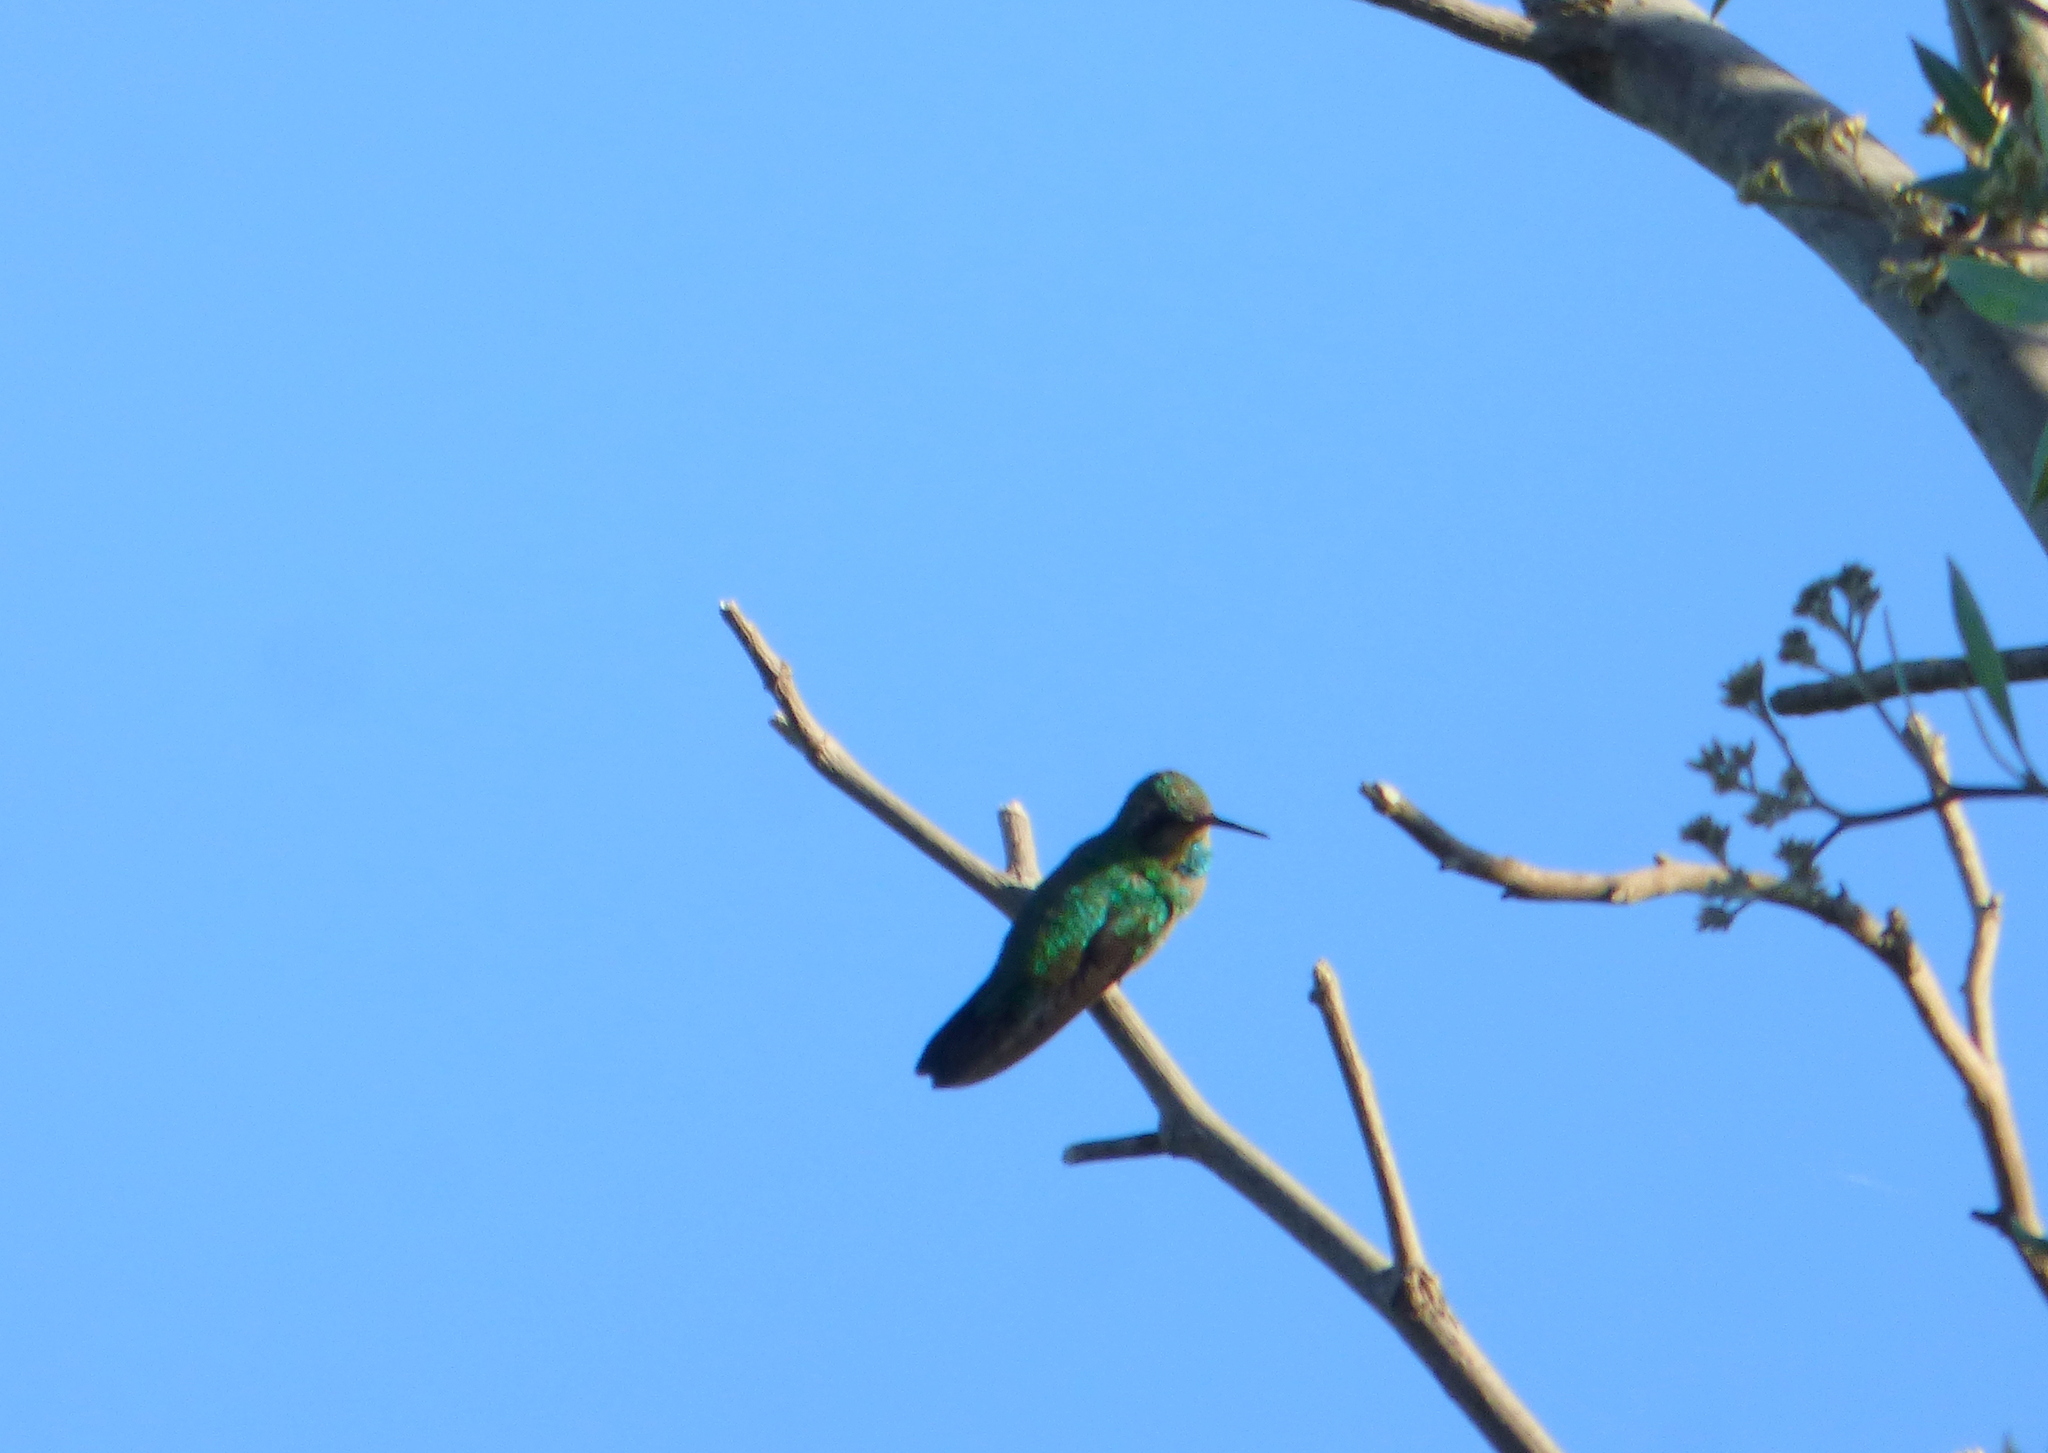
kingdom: Animalia
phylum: Chordata
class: Aves
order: Apodiformes
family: Trochilidae
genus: Chlorostilbon
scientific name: Chlorostilbon lucidus
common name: Glittering-bellied emerald
